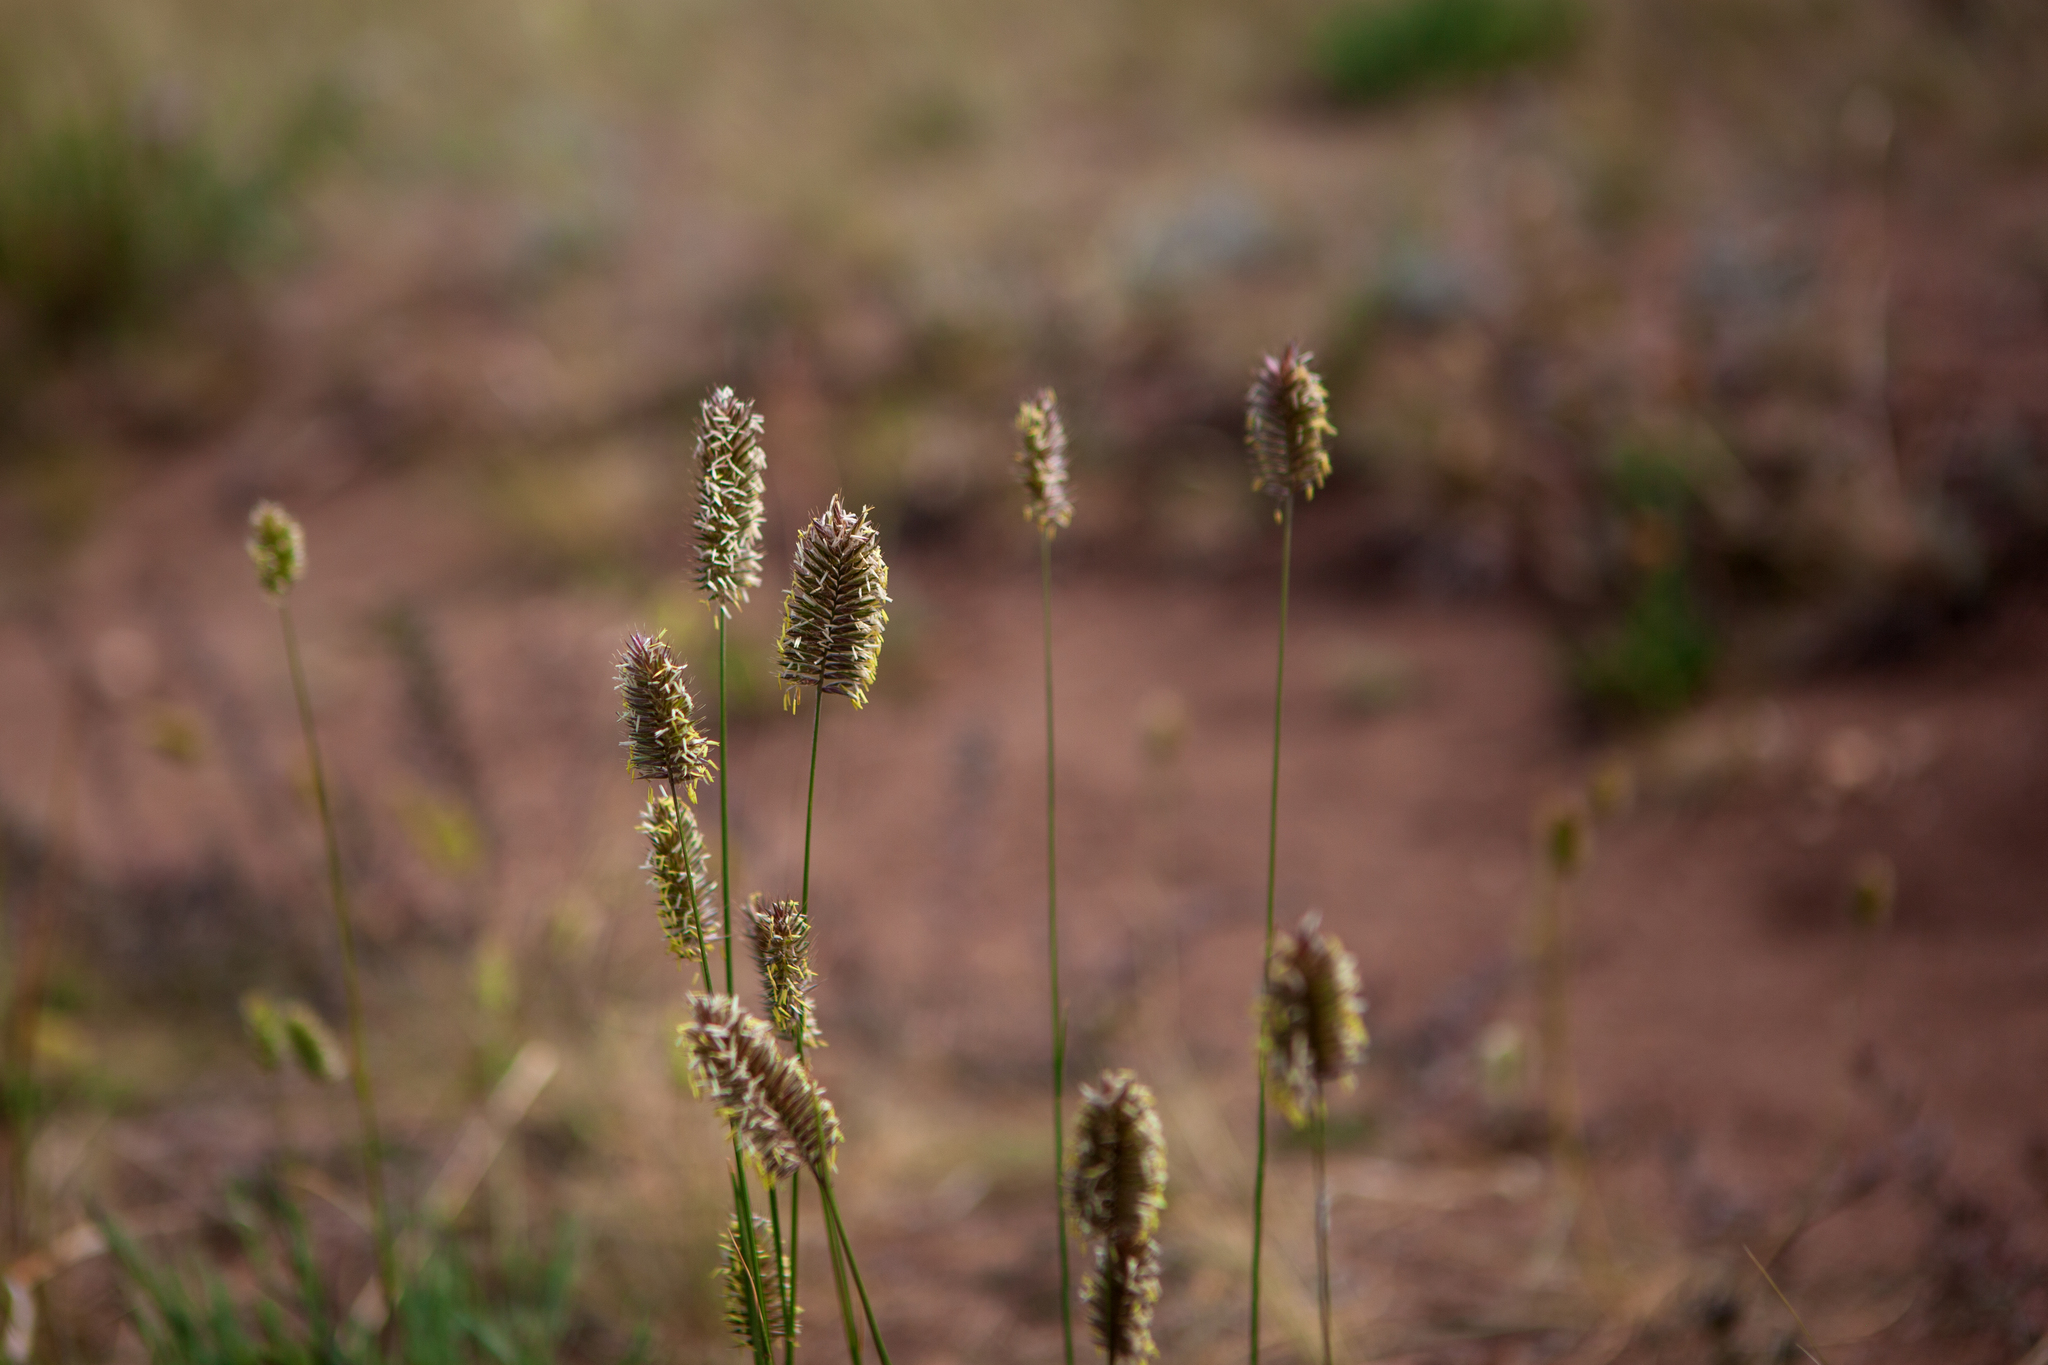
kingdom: Plantae
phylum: Tracheophyta
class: Liliopsida
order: Poales
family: Poaceae
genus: Agropyron
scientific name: Agropyron cristatum
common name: Crested wheatgrass
